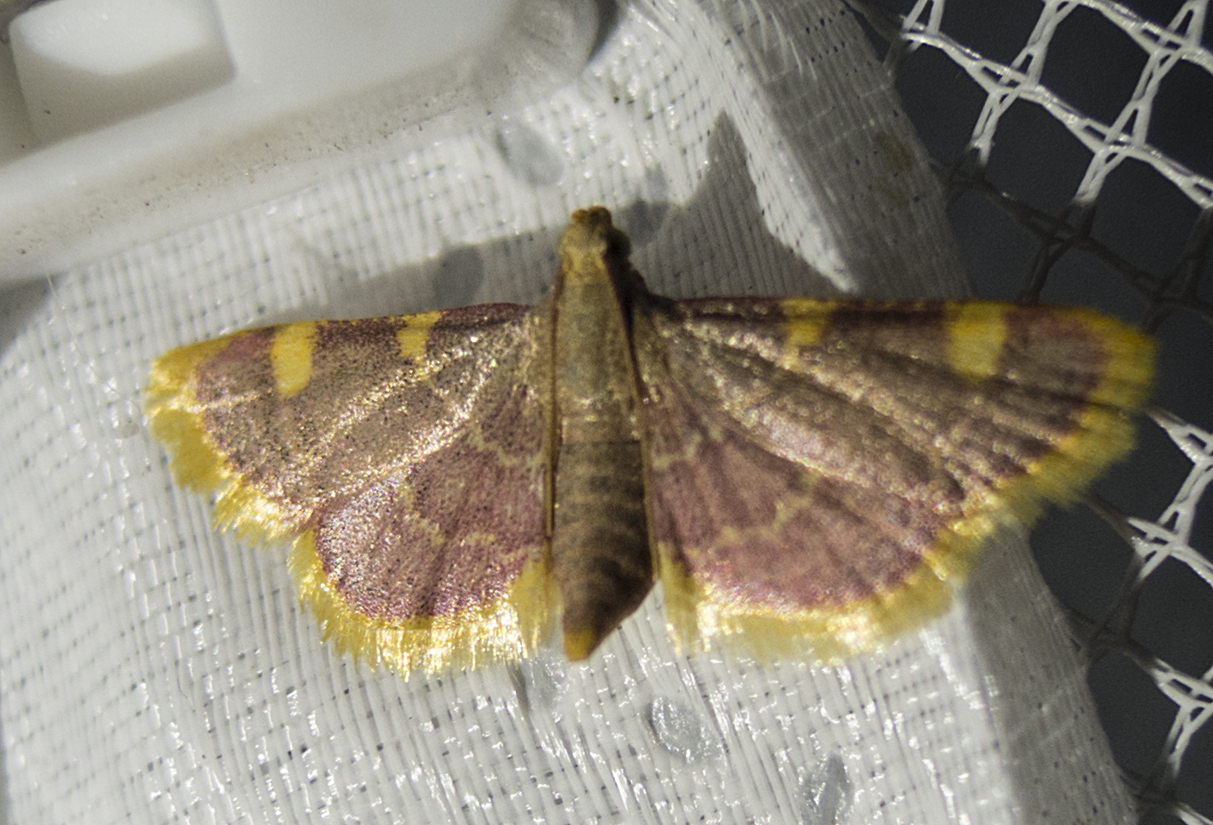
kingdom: Animalia
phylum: Arthropoda
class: Insecta
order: Lepidoptera
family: Pyralidae
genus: Hypsopygia
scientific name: Hypsopygia costalis
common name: Gold triangle
